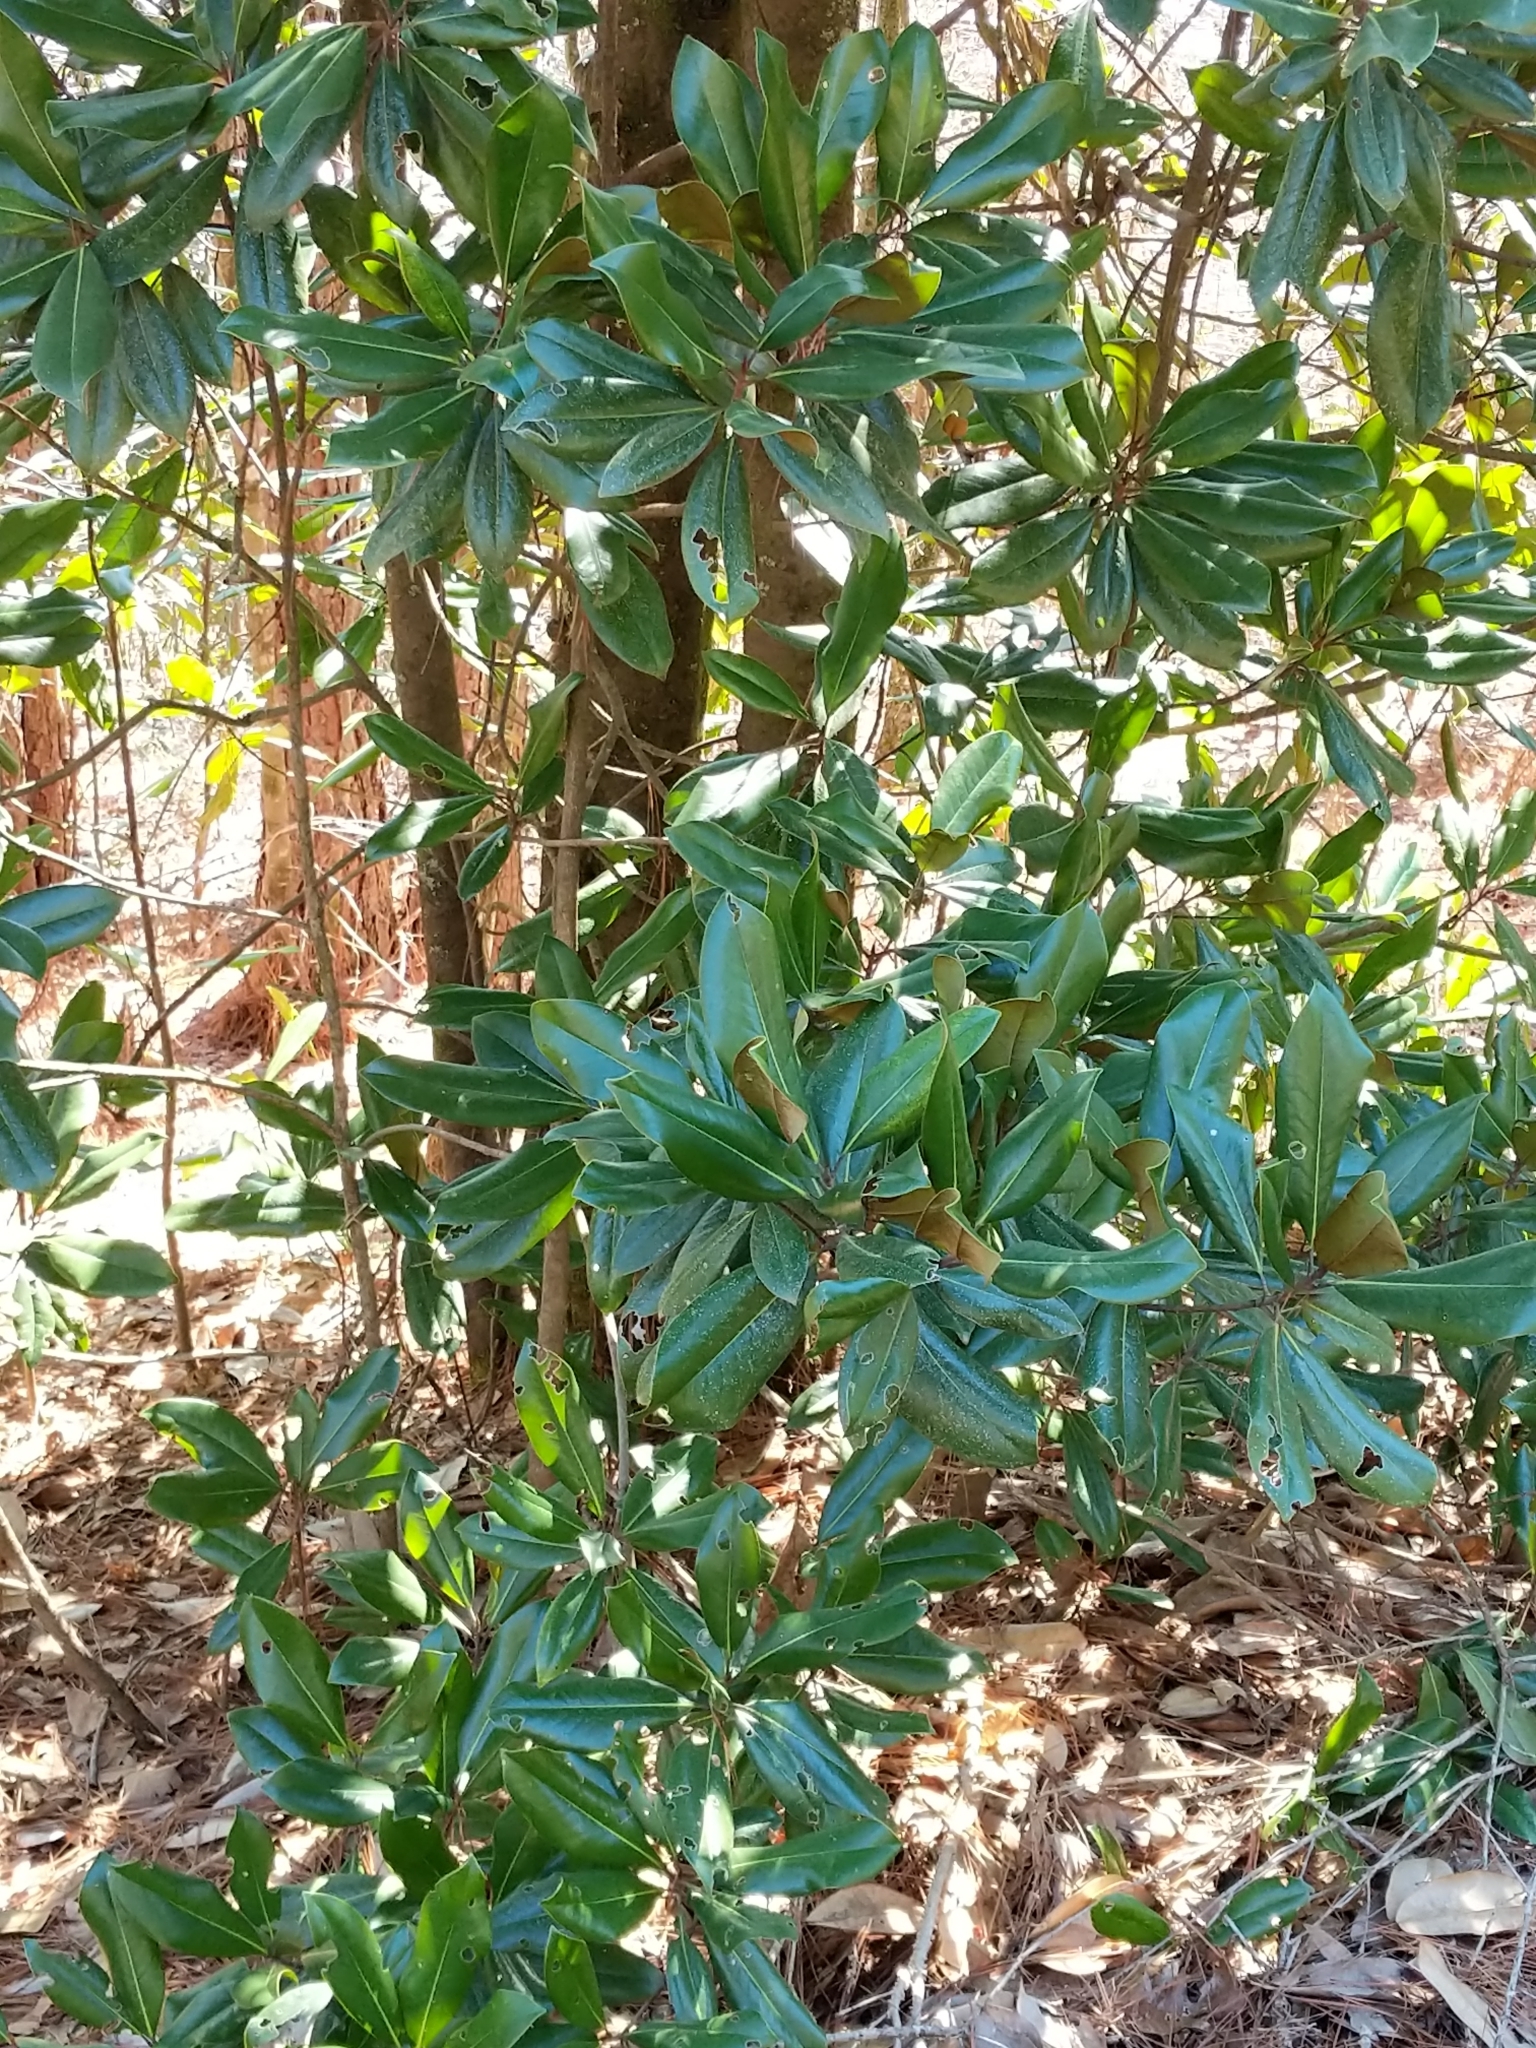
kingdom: Plantae
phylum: Tracheophyta
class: Magnoliopsida
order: Magnoliales
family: Magnoliaceae
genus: Magnolia
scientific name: Magnolia grandiflora
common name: Southern magnolia
